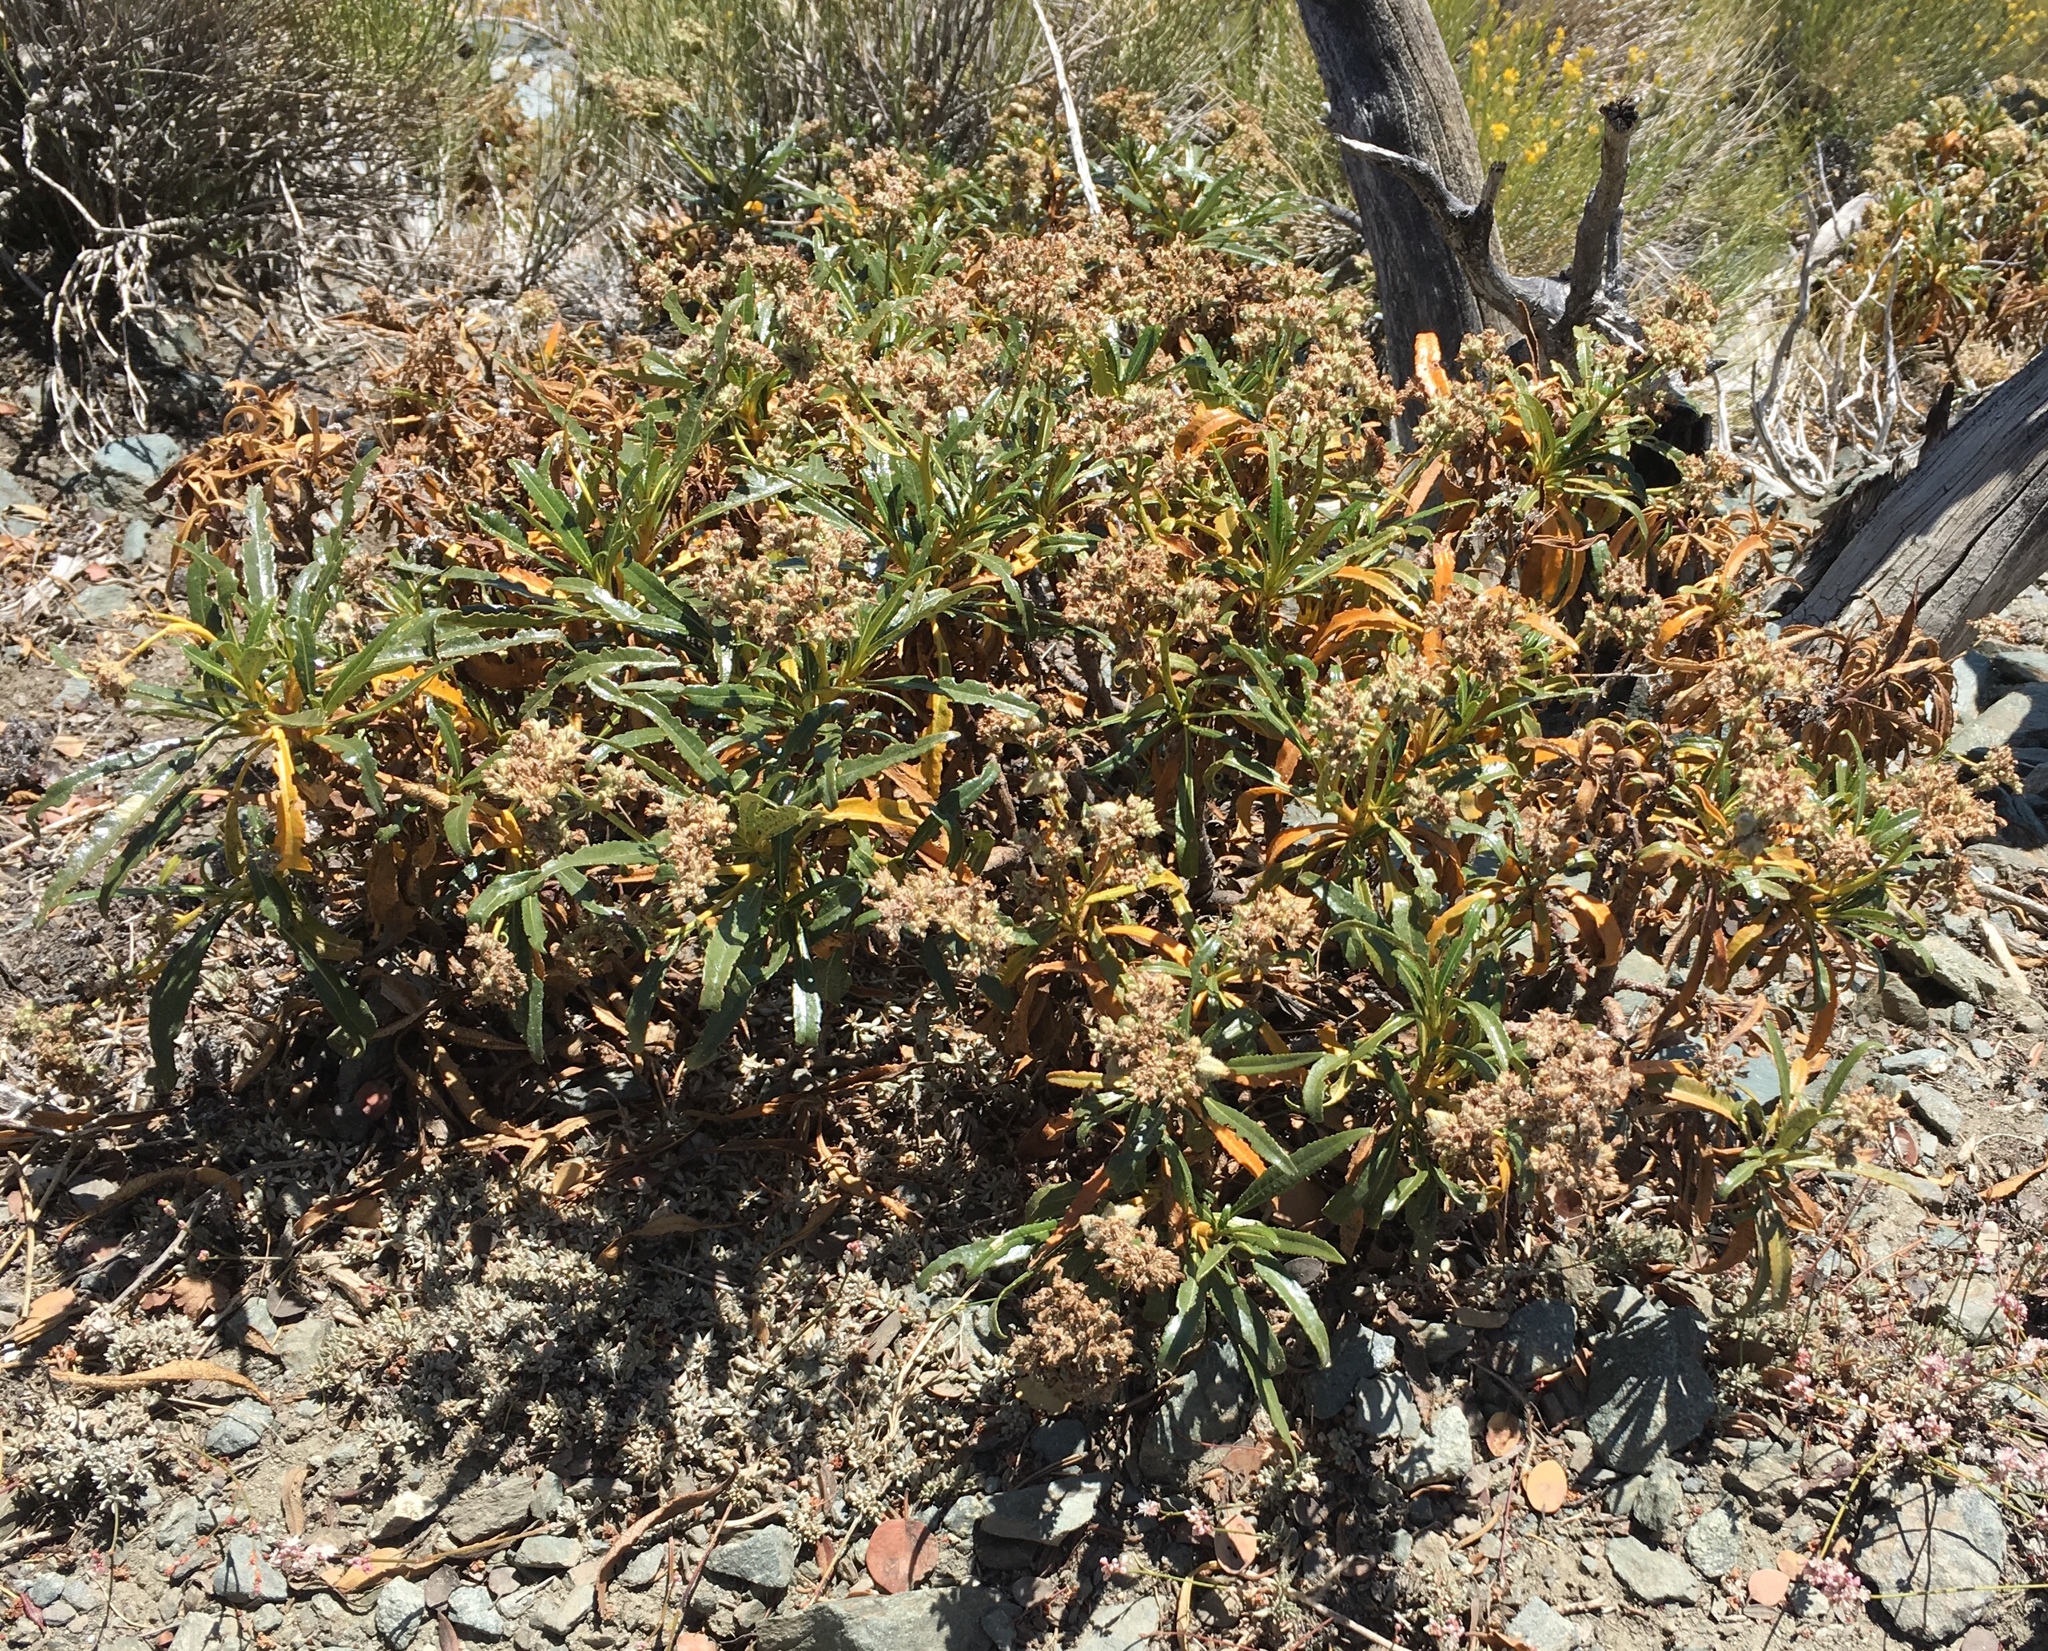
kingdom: Plantae
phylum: Tracheophyta
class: Magnoliopsida
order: Boraginales
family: Namaceae
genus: Eriodictyon
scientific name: Eriodictyon trichocalyx
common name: Hairy yerba-santa
